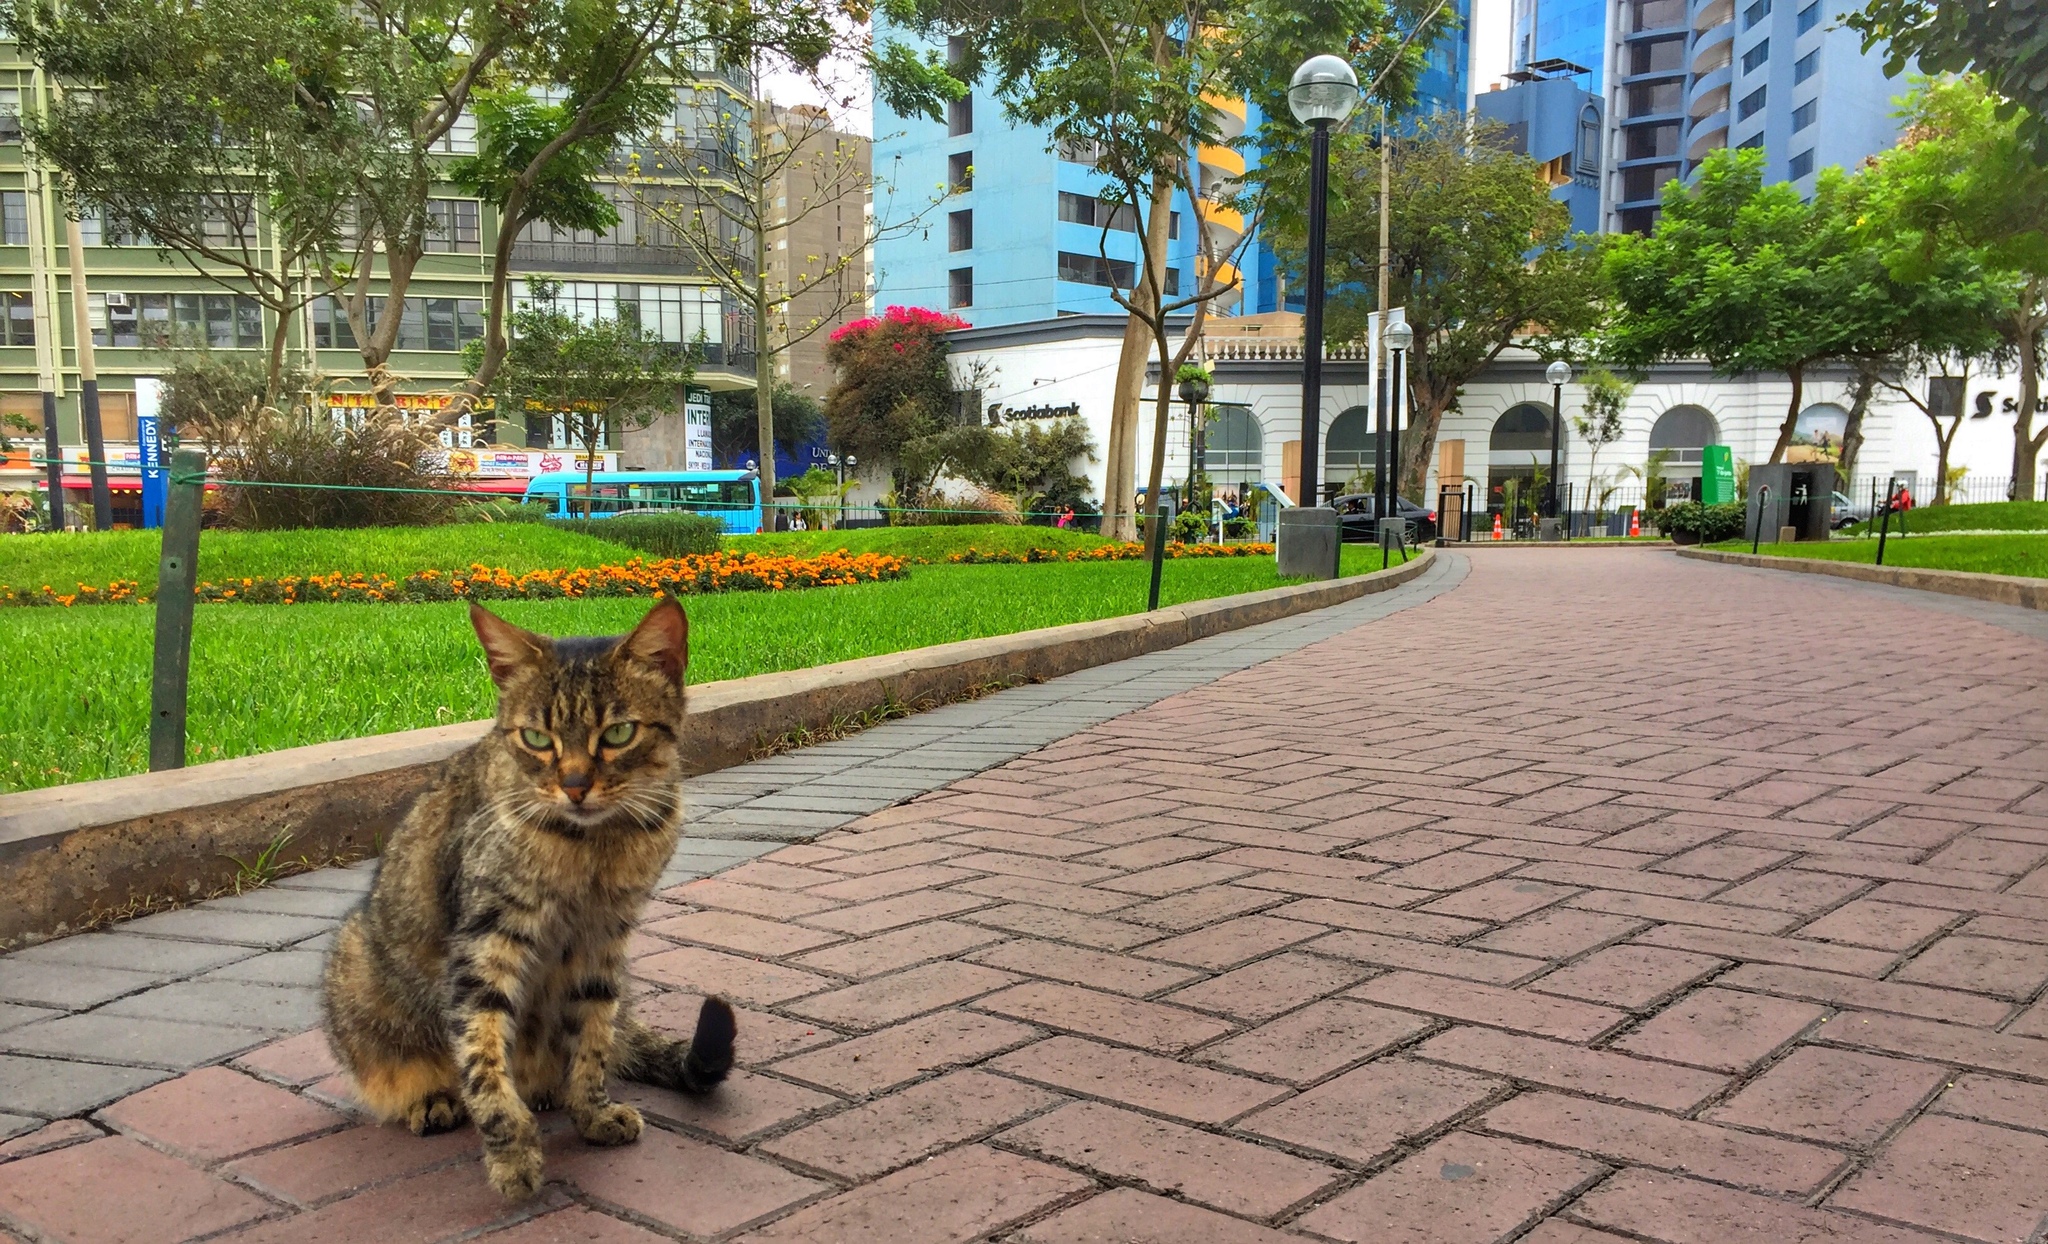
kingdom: Animalia
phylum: Chordata
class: Mammalia
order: Carnivora
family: Felidae
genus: Felis
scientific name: Felis catus
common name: Domestic cat
